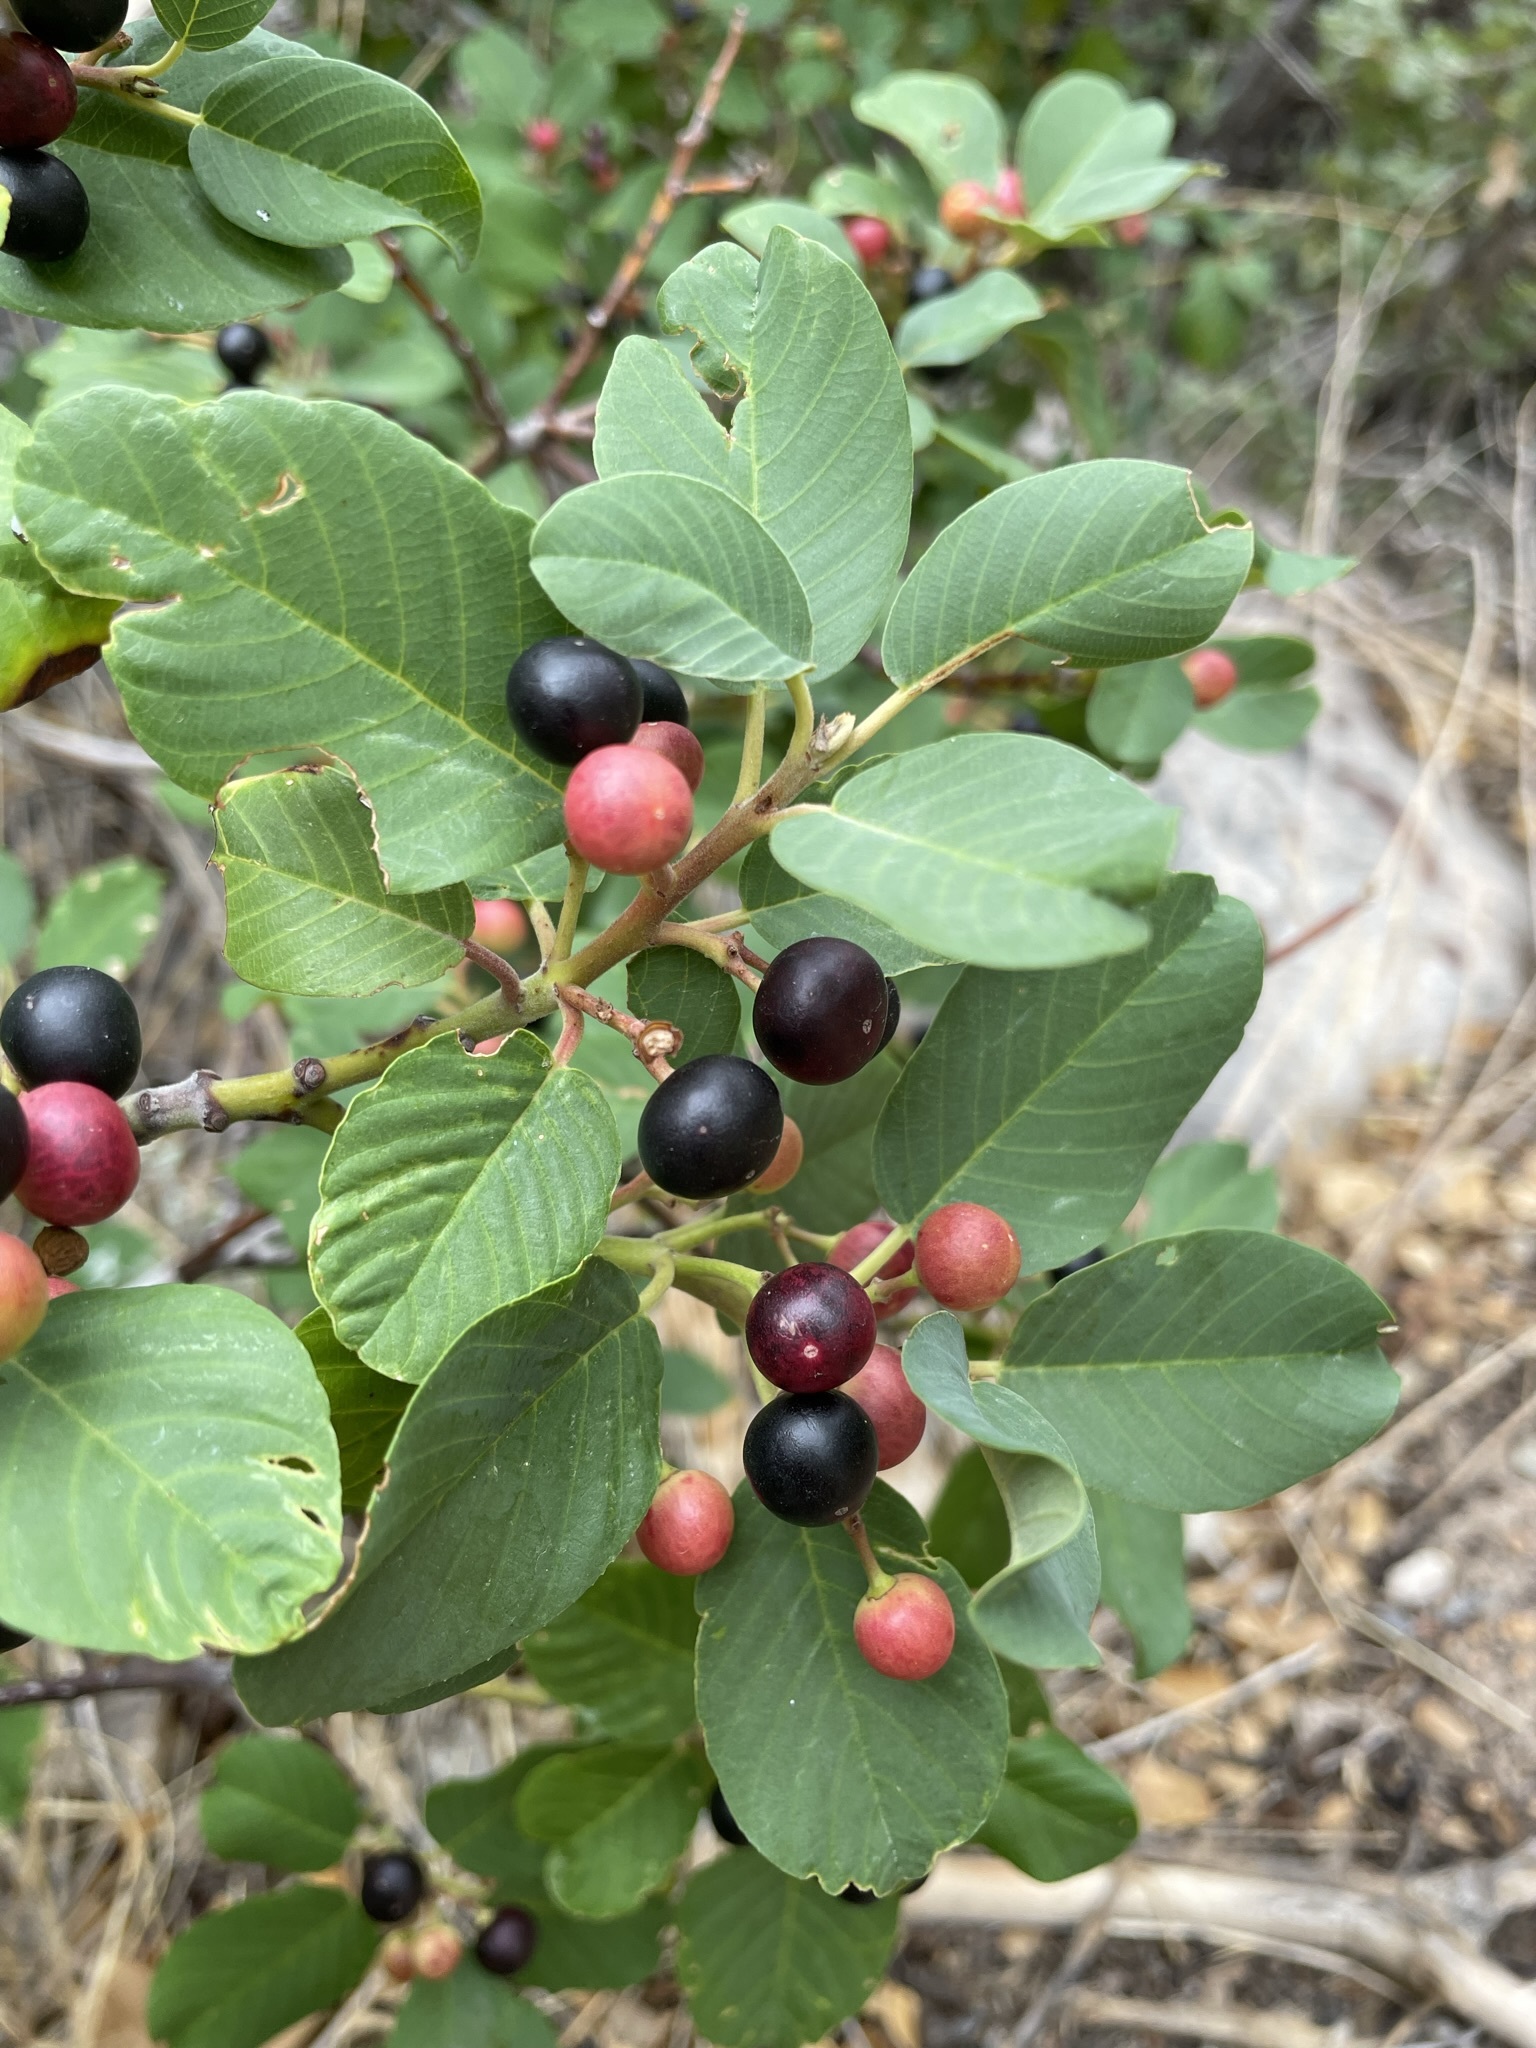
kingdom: Plantae
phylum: Tracheophyta
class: Magnoliopsida
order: Rosales
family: Rhamnaceae
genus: Frangula
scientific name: Frangula californica
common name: California buckthorn
